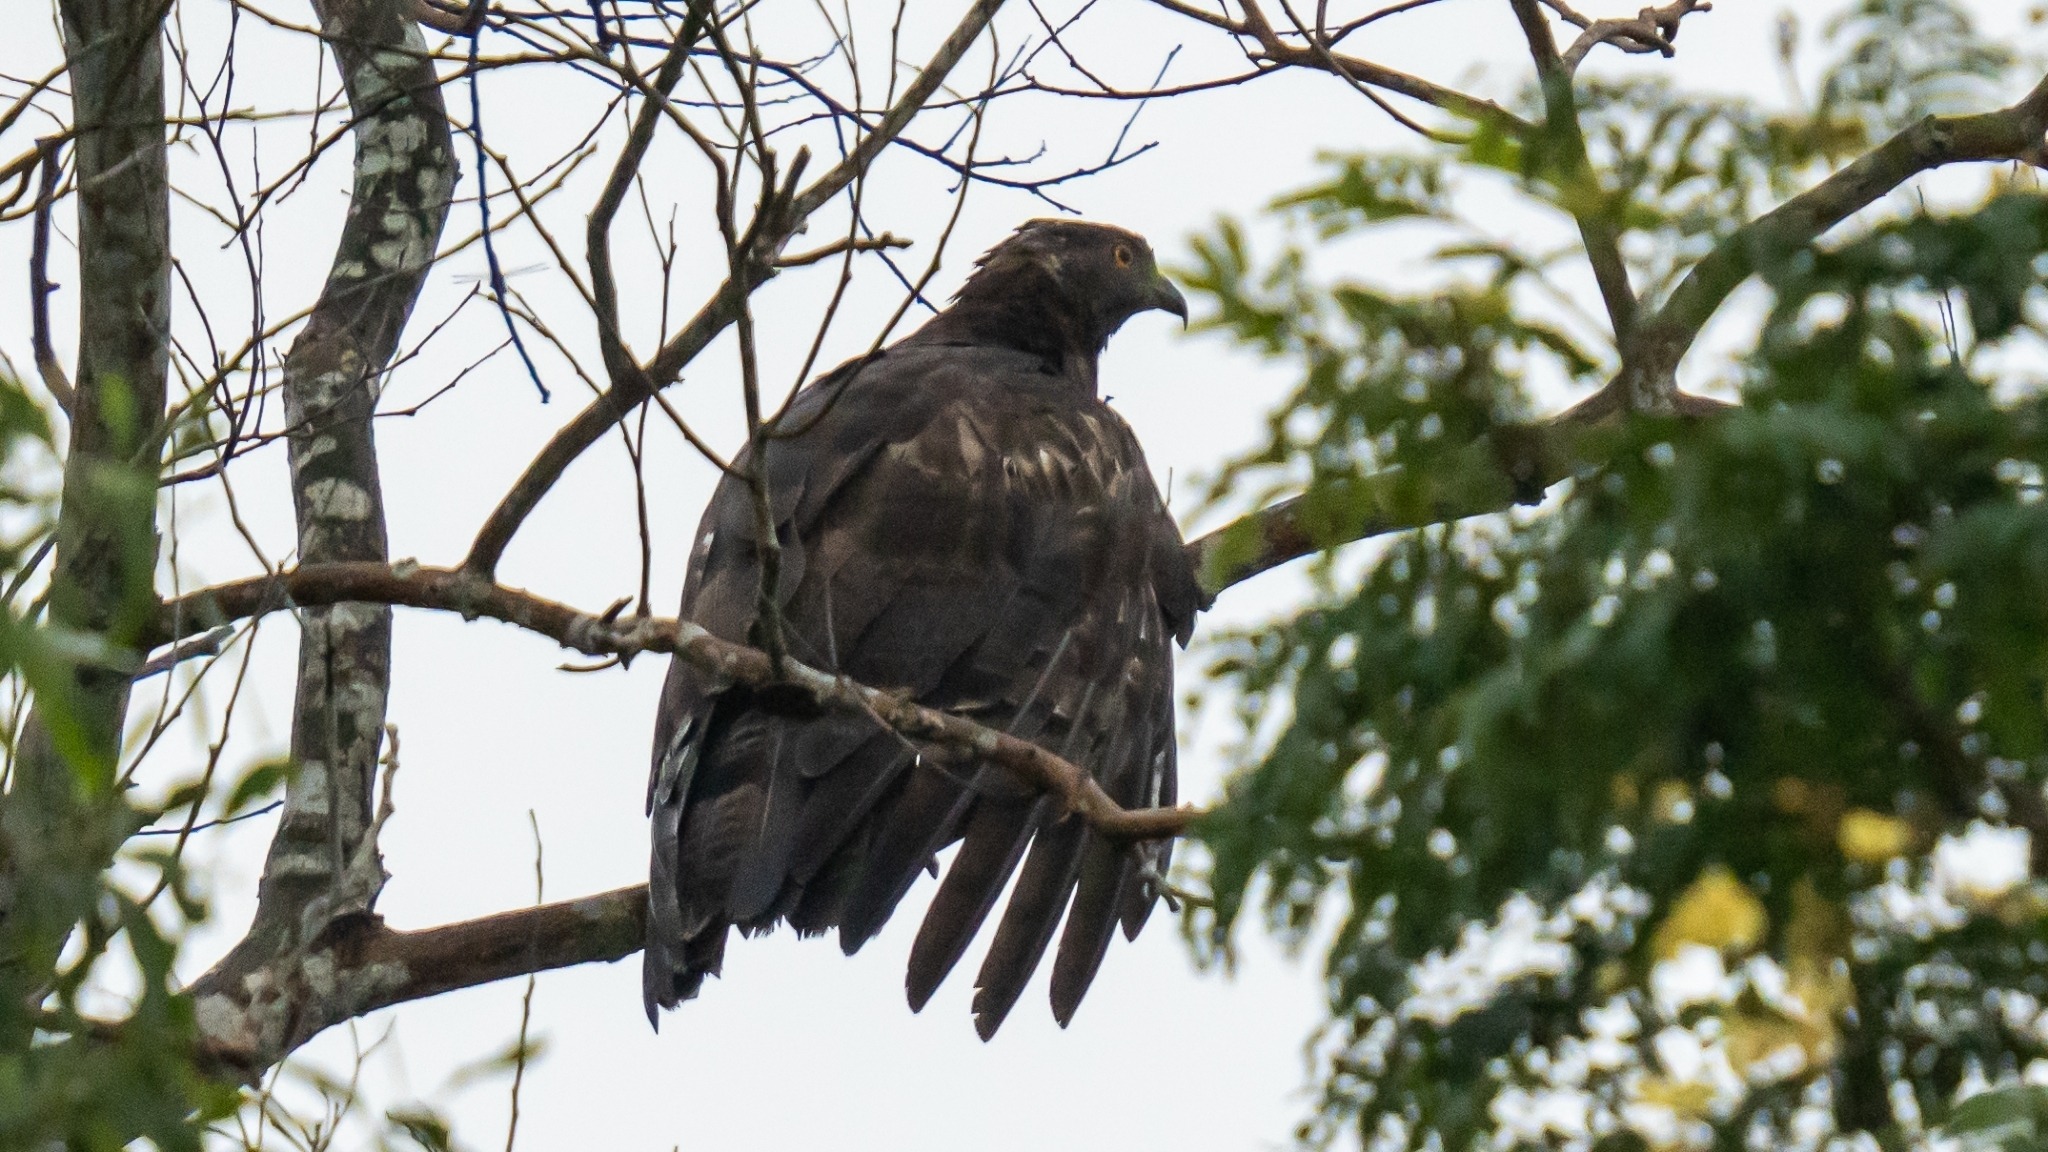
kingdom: Animalia
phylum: Chordata
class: Aves
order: Accipitriformes
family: Accipitridae
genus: Pernis
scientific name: Pernis ptilorhynchus
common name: Crested honey buzzard
